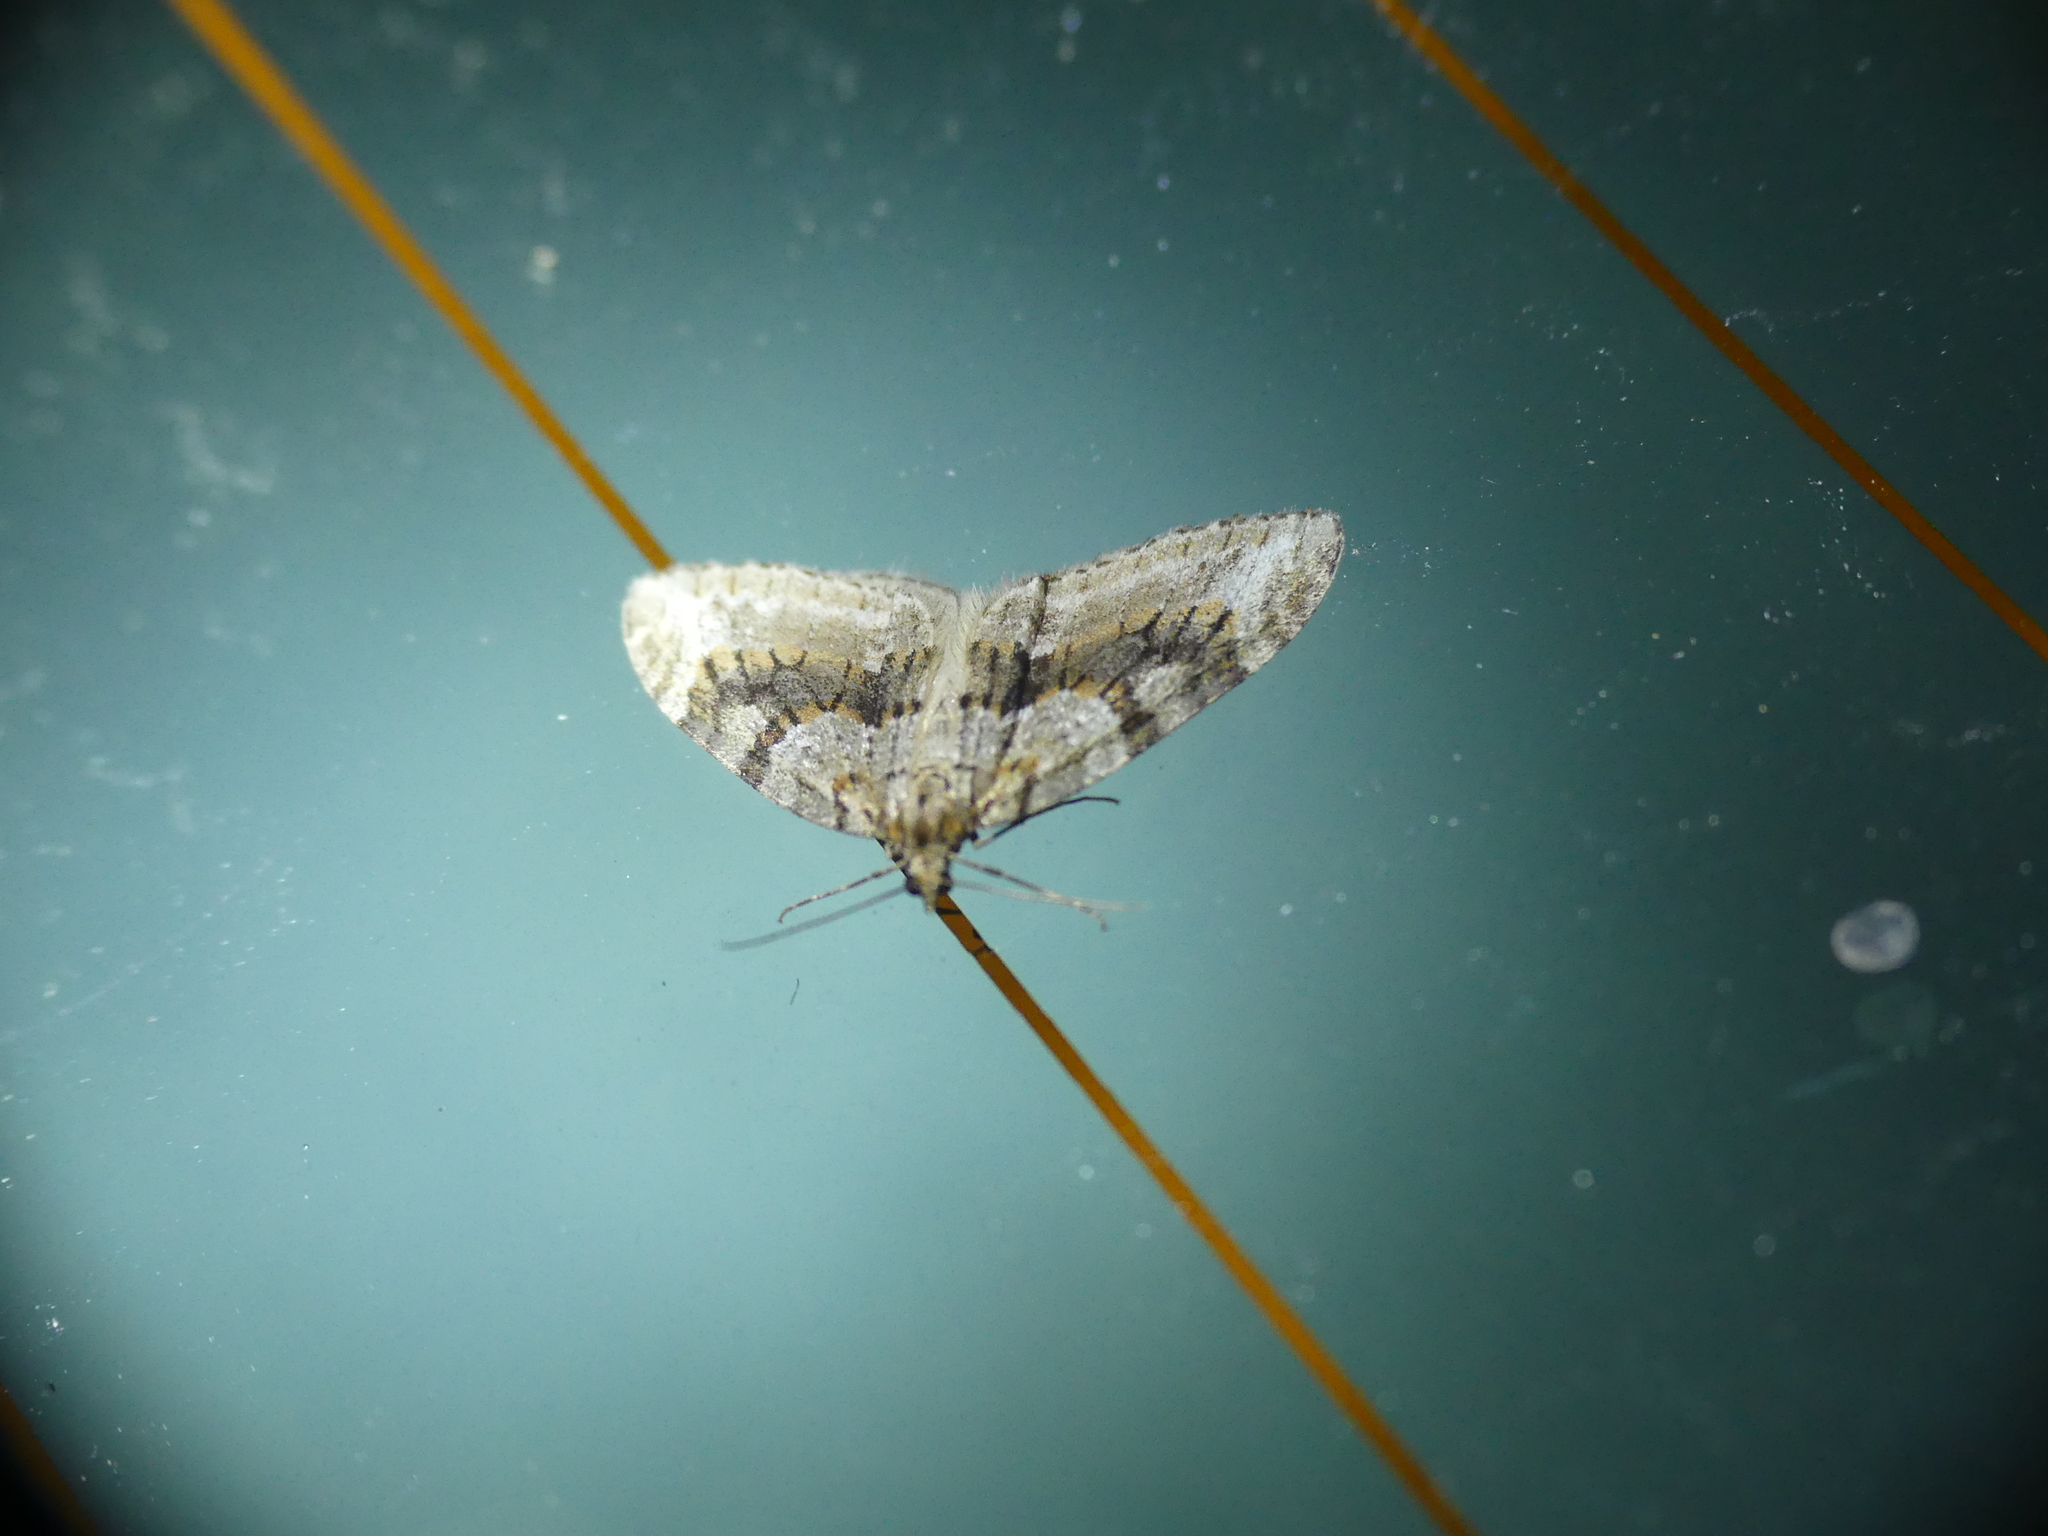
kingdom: Animalia
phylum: Arthropoda
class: Insecta
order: Lepidoptera
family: Geometridae
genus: Trichopteryx
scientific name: Trichopteryx polycommata
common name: Barred tooth-striped
